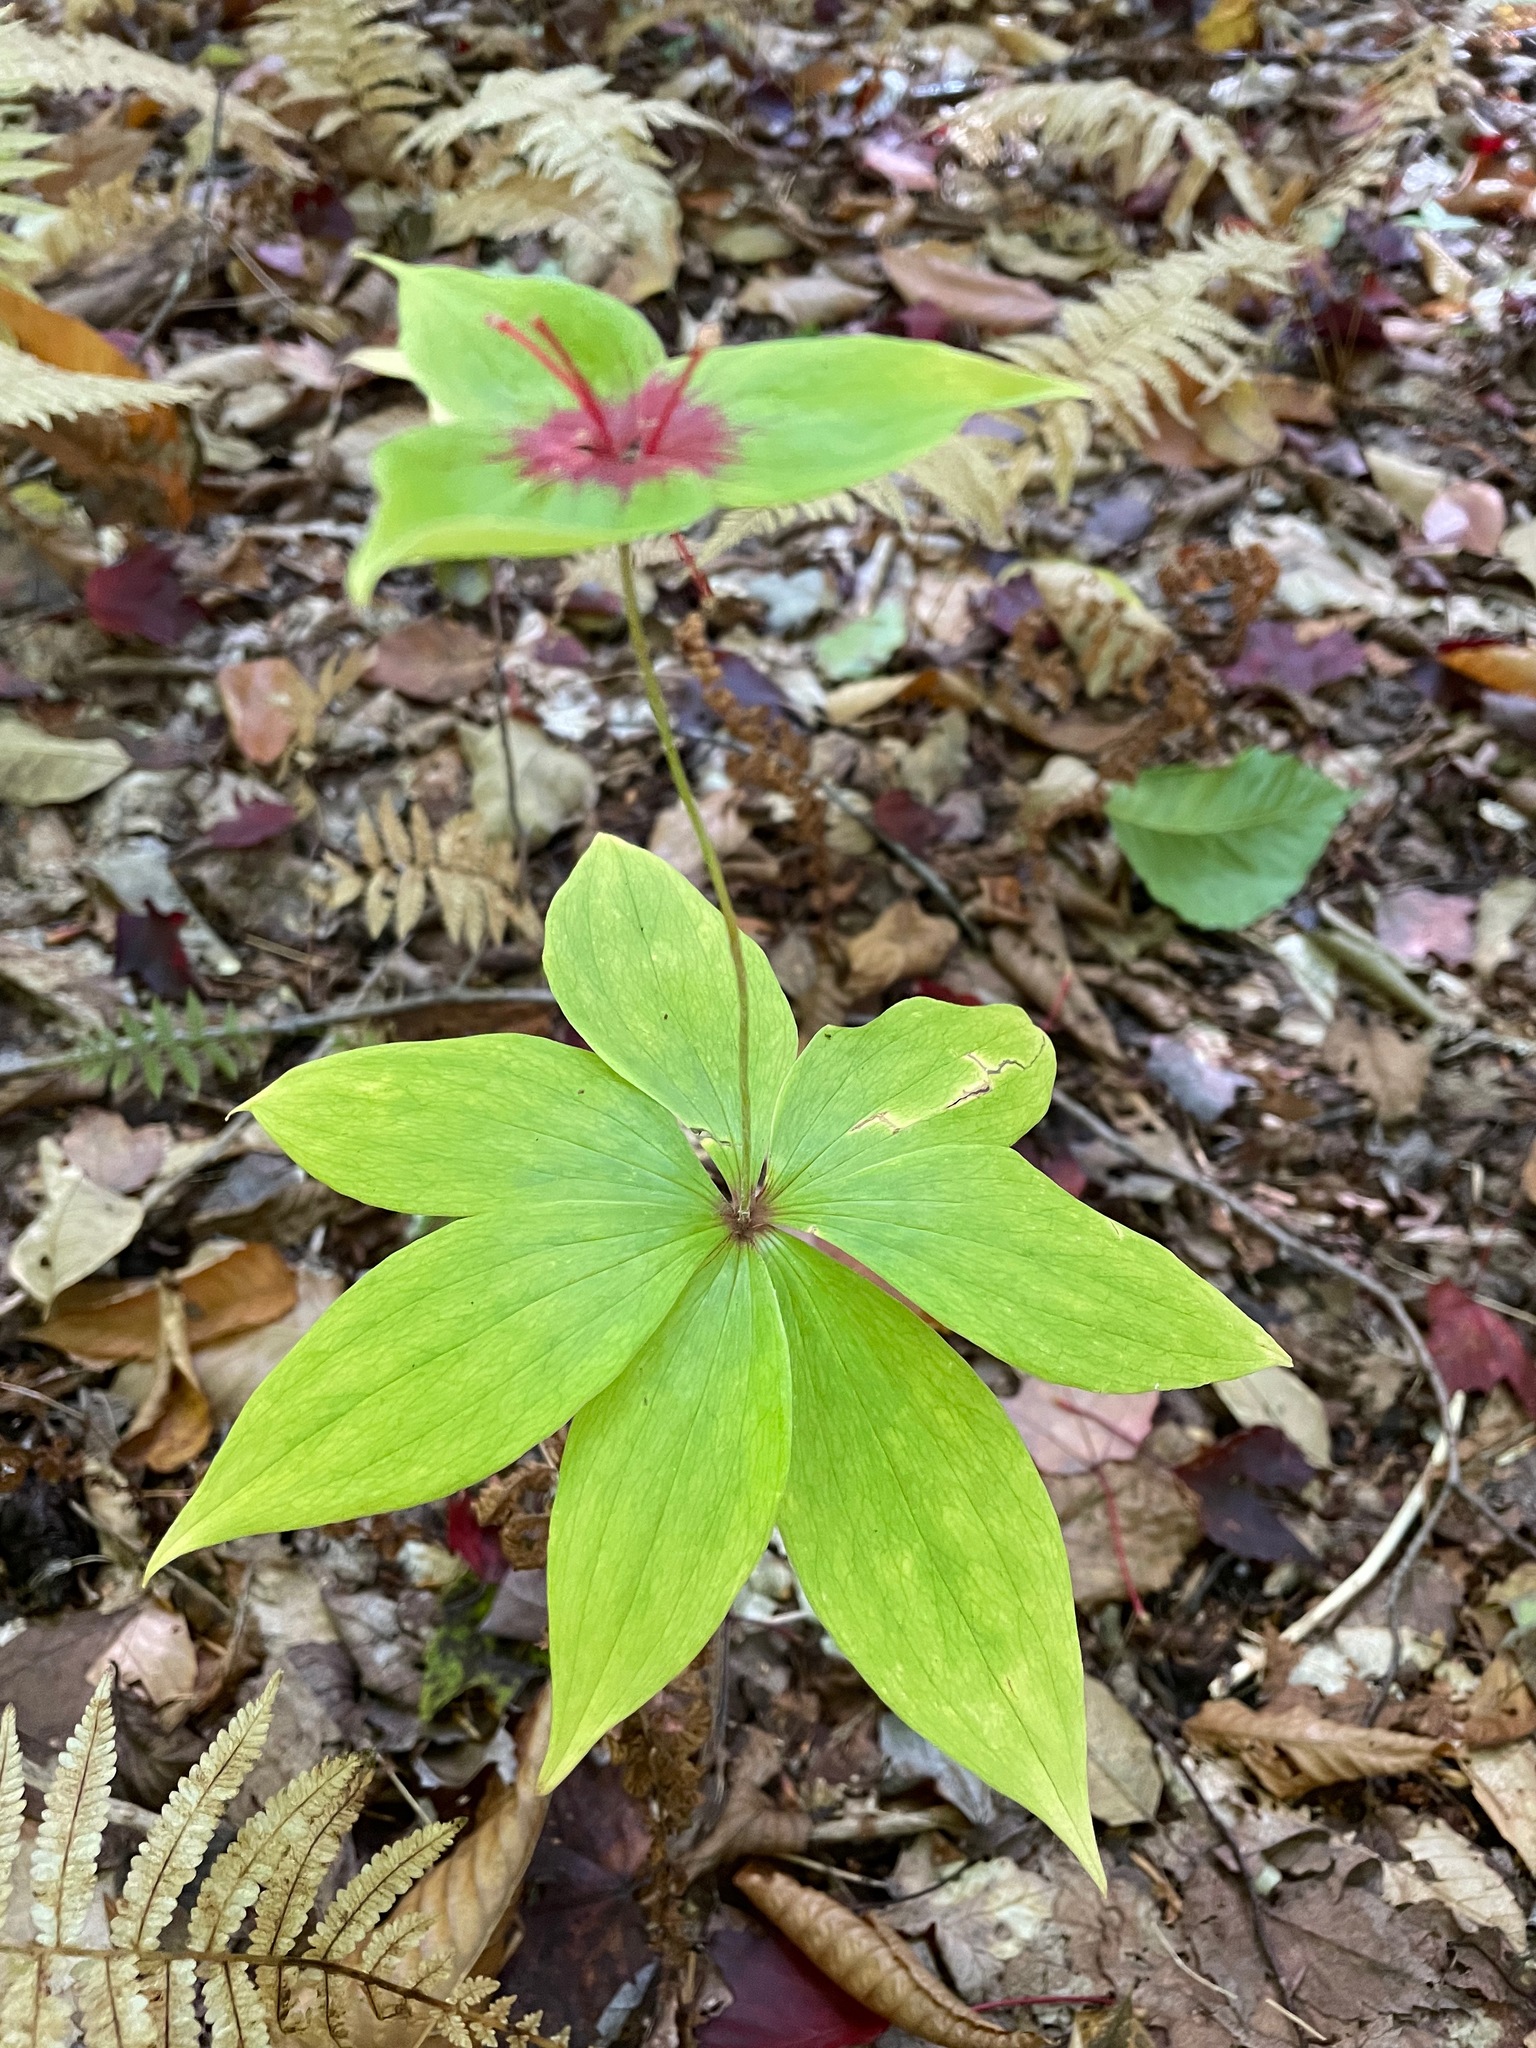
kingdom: Plantae
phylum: Tracheophyta
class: Liliopsida
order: Liliales
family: Liliaceae
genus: Medeola
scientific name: Medeola virginiana
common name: Indian cucumber-root
